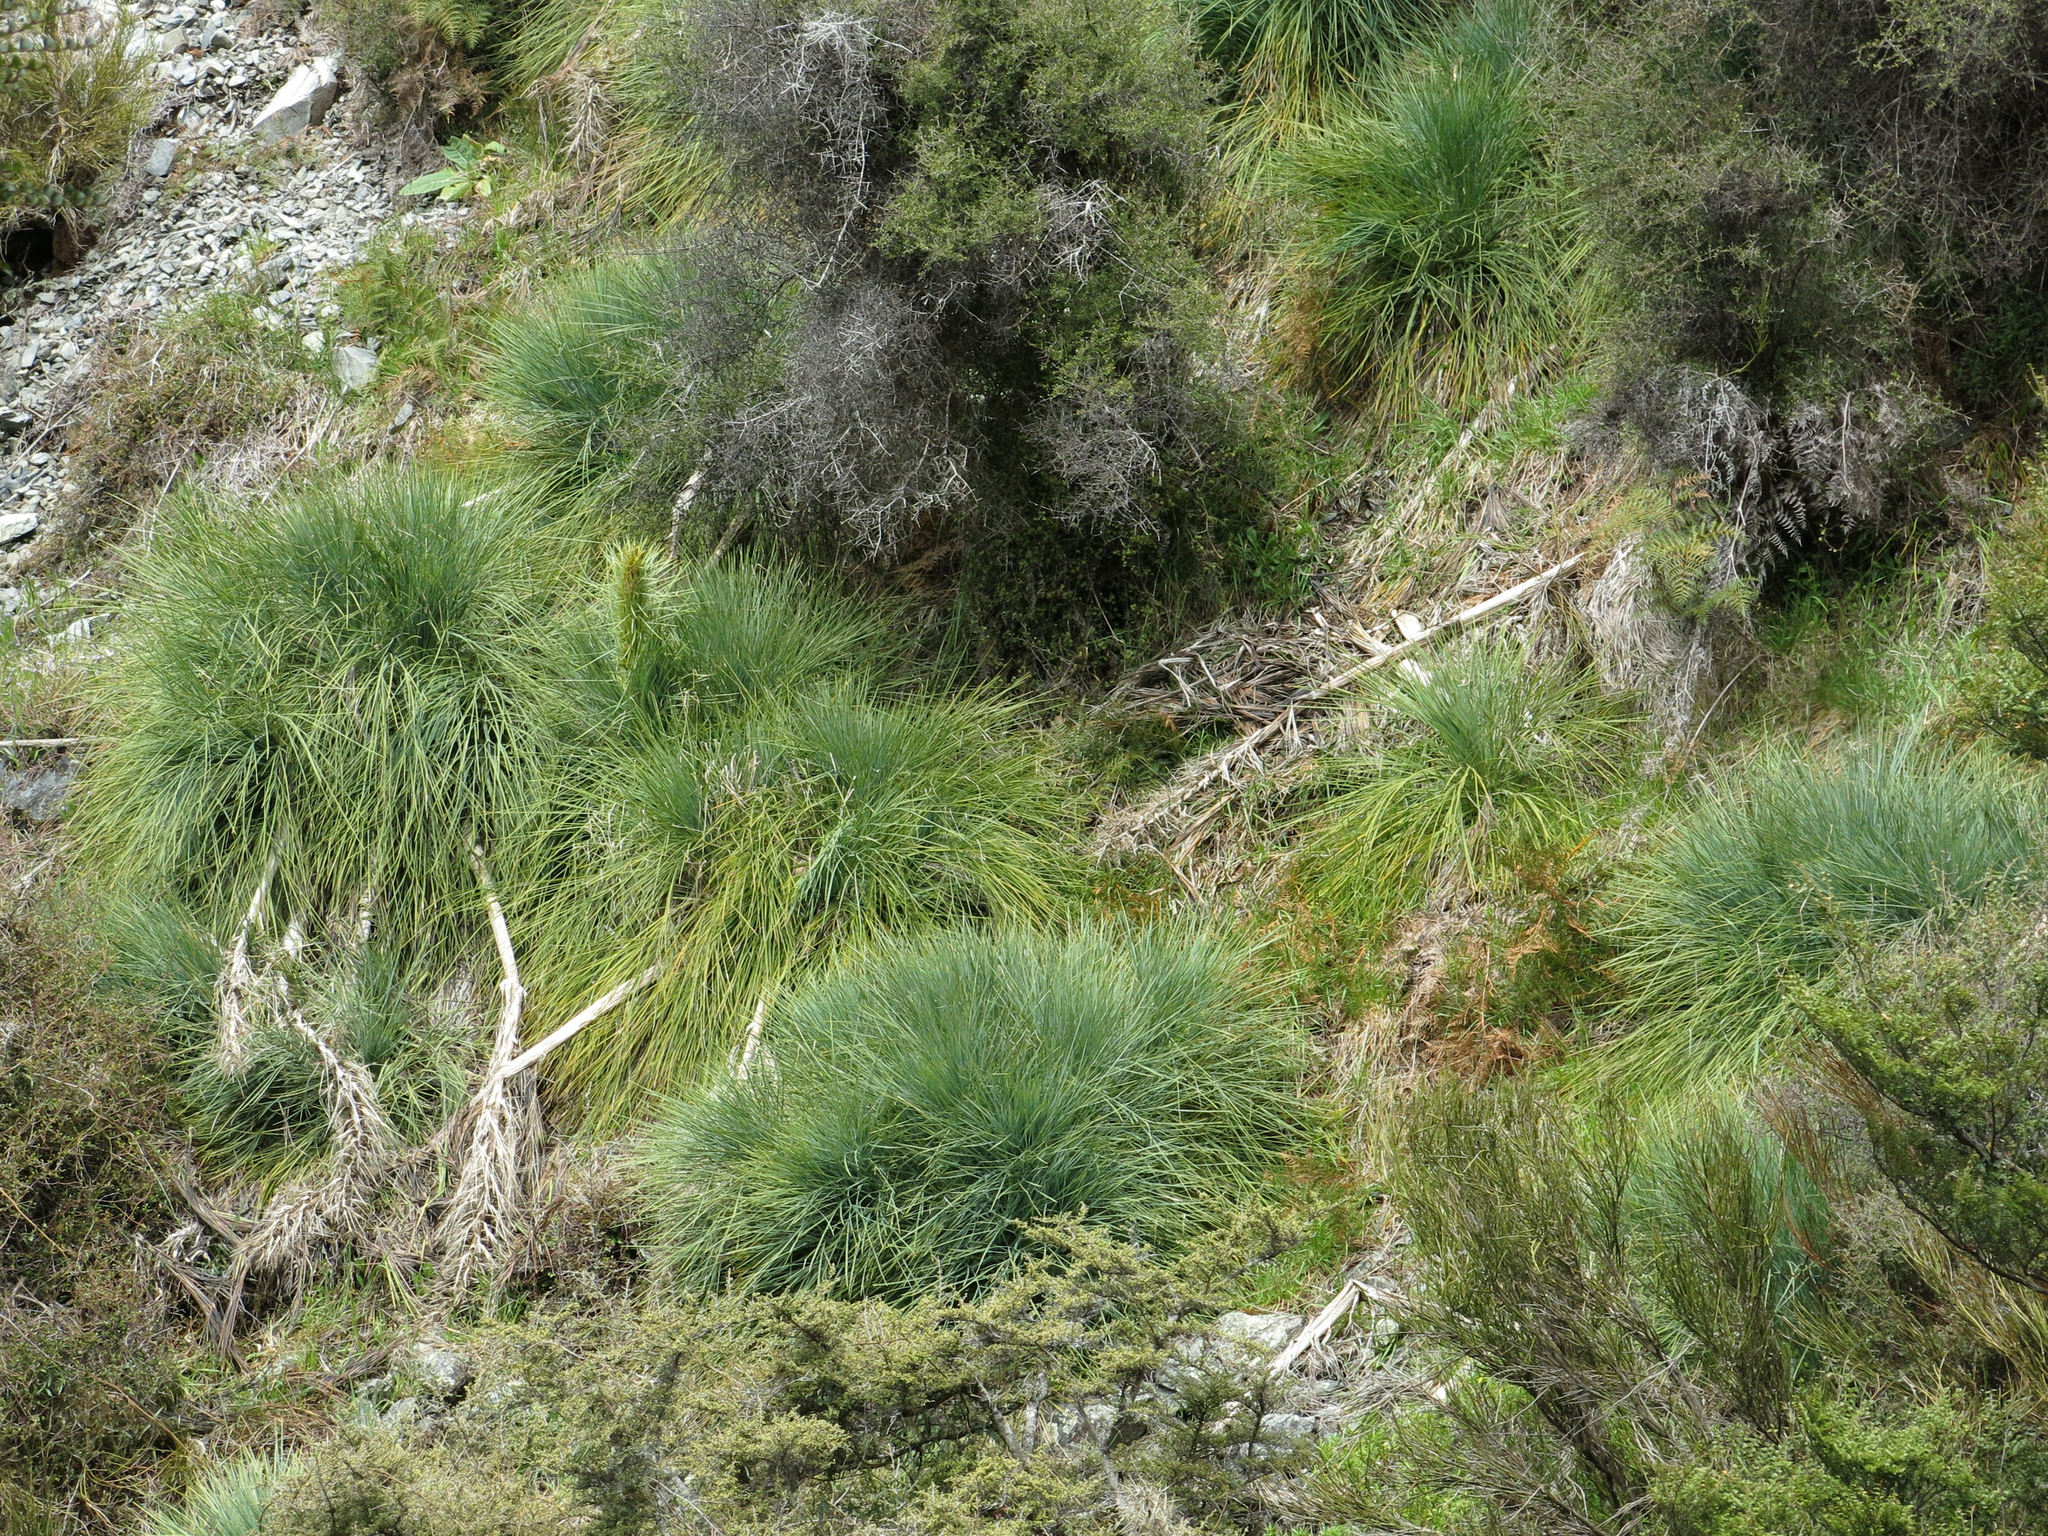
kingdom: Plantae
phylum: Tracheophyta
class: Magnoliopsida
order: Apiales
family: Apiaceae
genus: Aciphylla
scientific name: Aciphylla glaucescens
